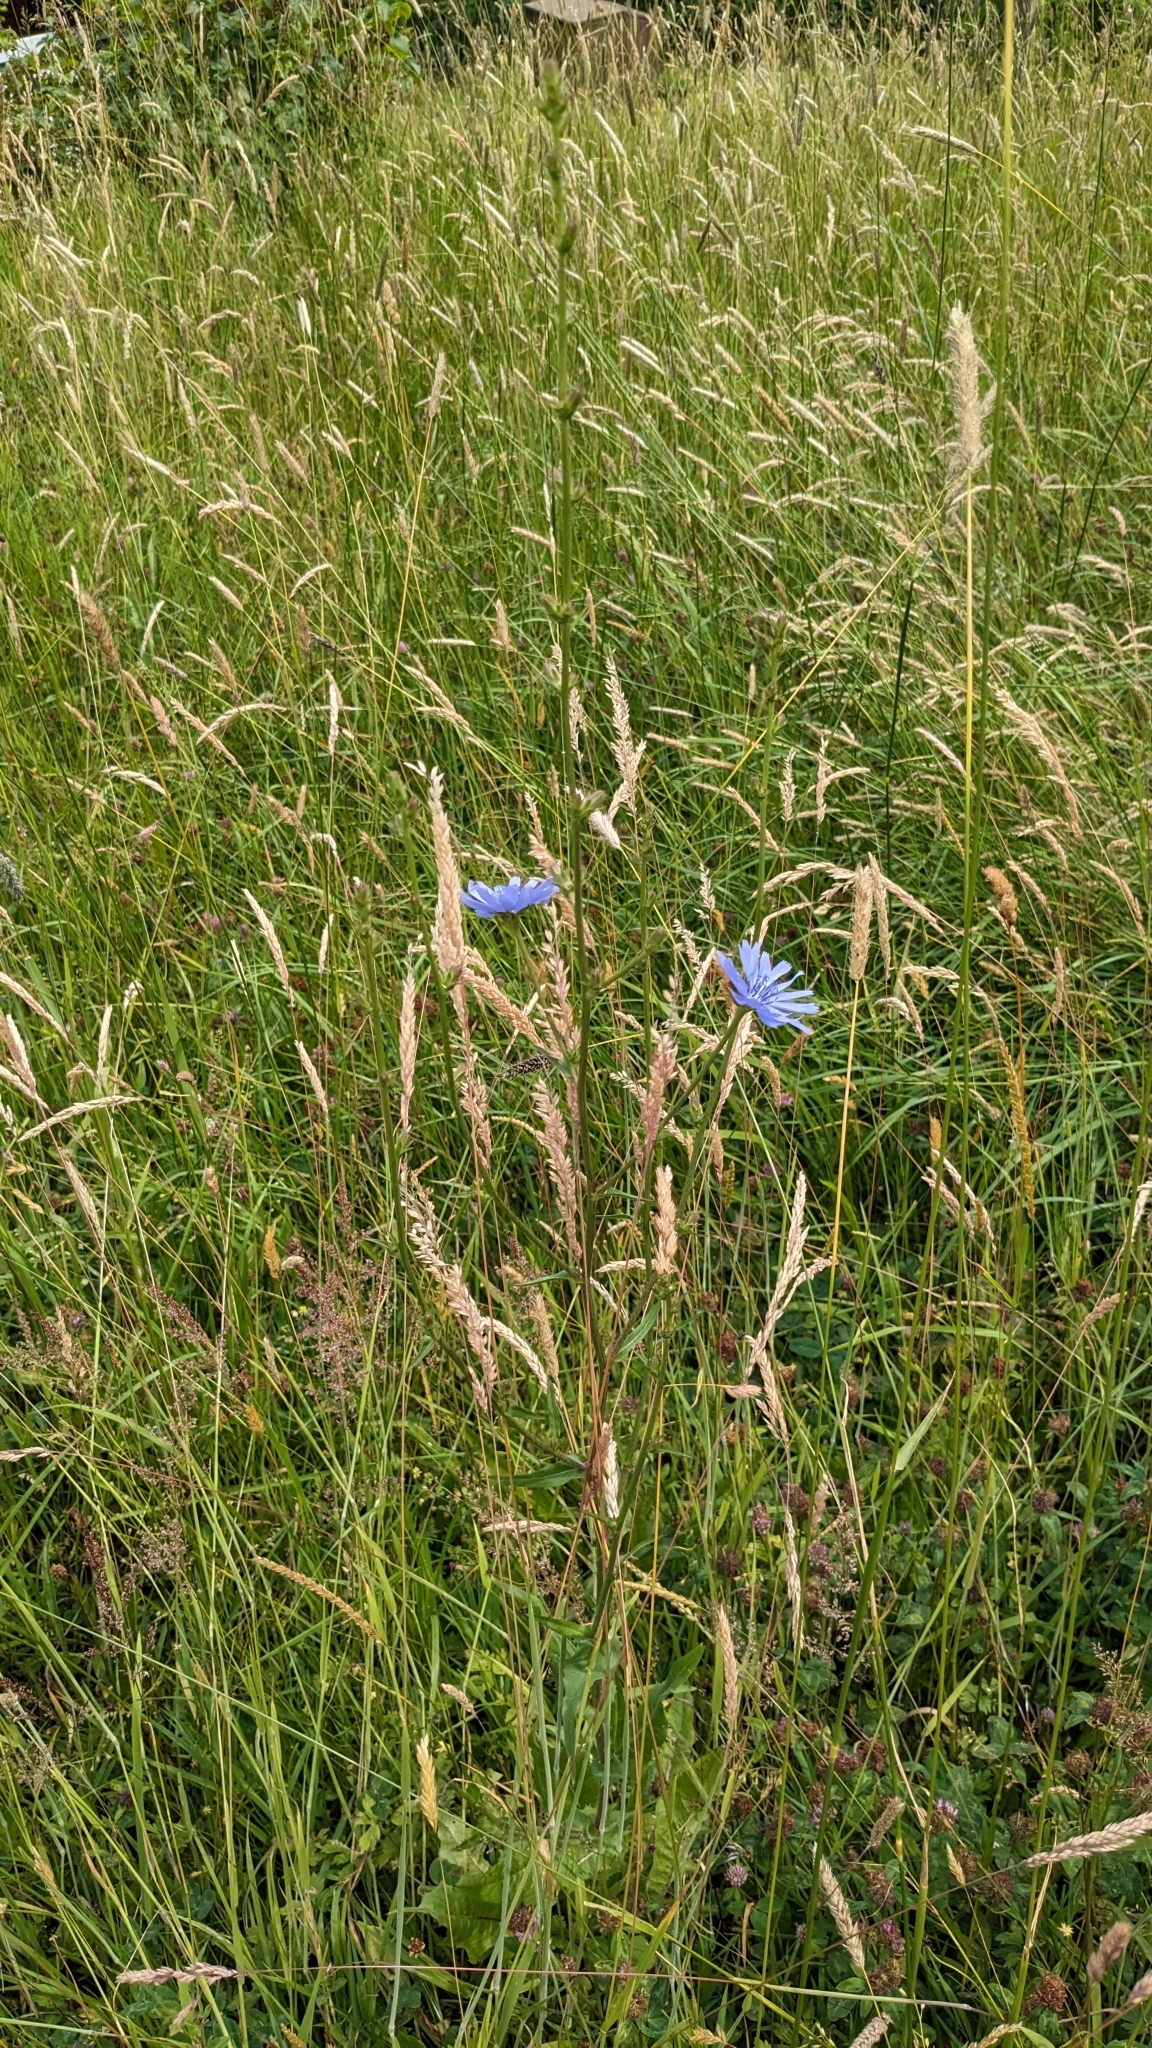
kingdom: Plantae
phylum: Tracheophyta
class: Magnoliopsida
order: Asterales
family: Asteraceae
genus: Cichorium
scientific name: Cichorium intybus
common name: Chicory
